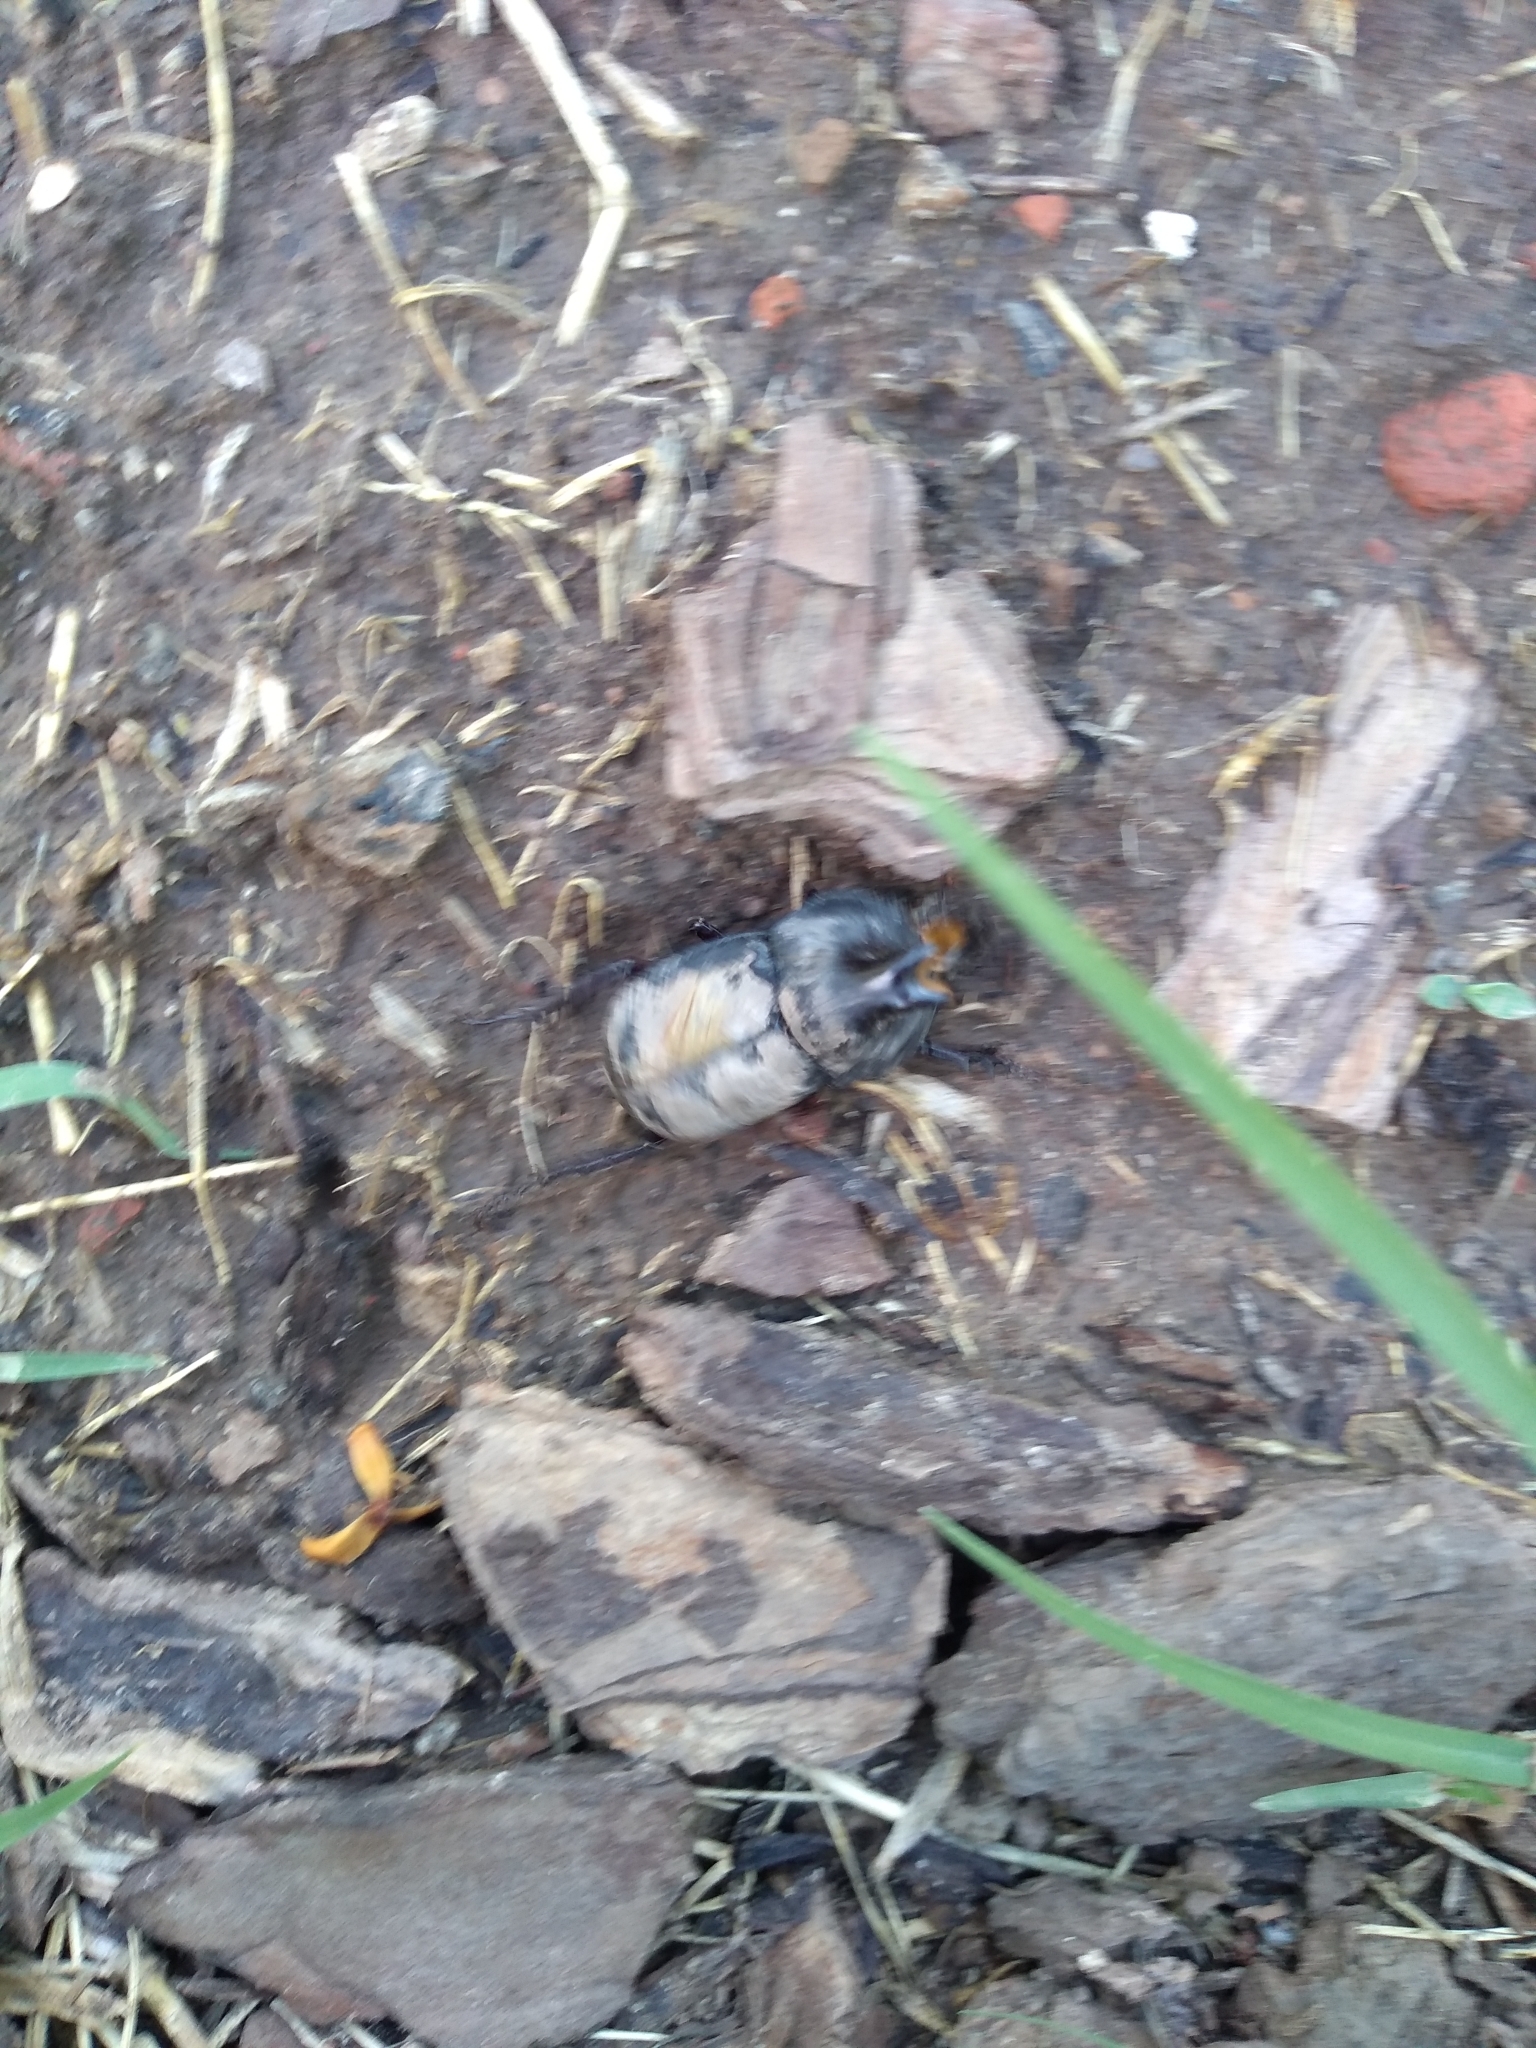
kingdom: Animalia
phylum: Arthropoda
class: Insecta
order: Coleoptera
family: Scarabaeidae
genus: Diloboderus
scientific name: Diloboderus abderus
